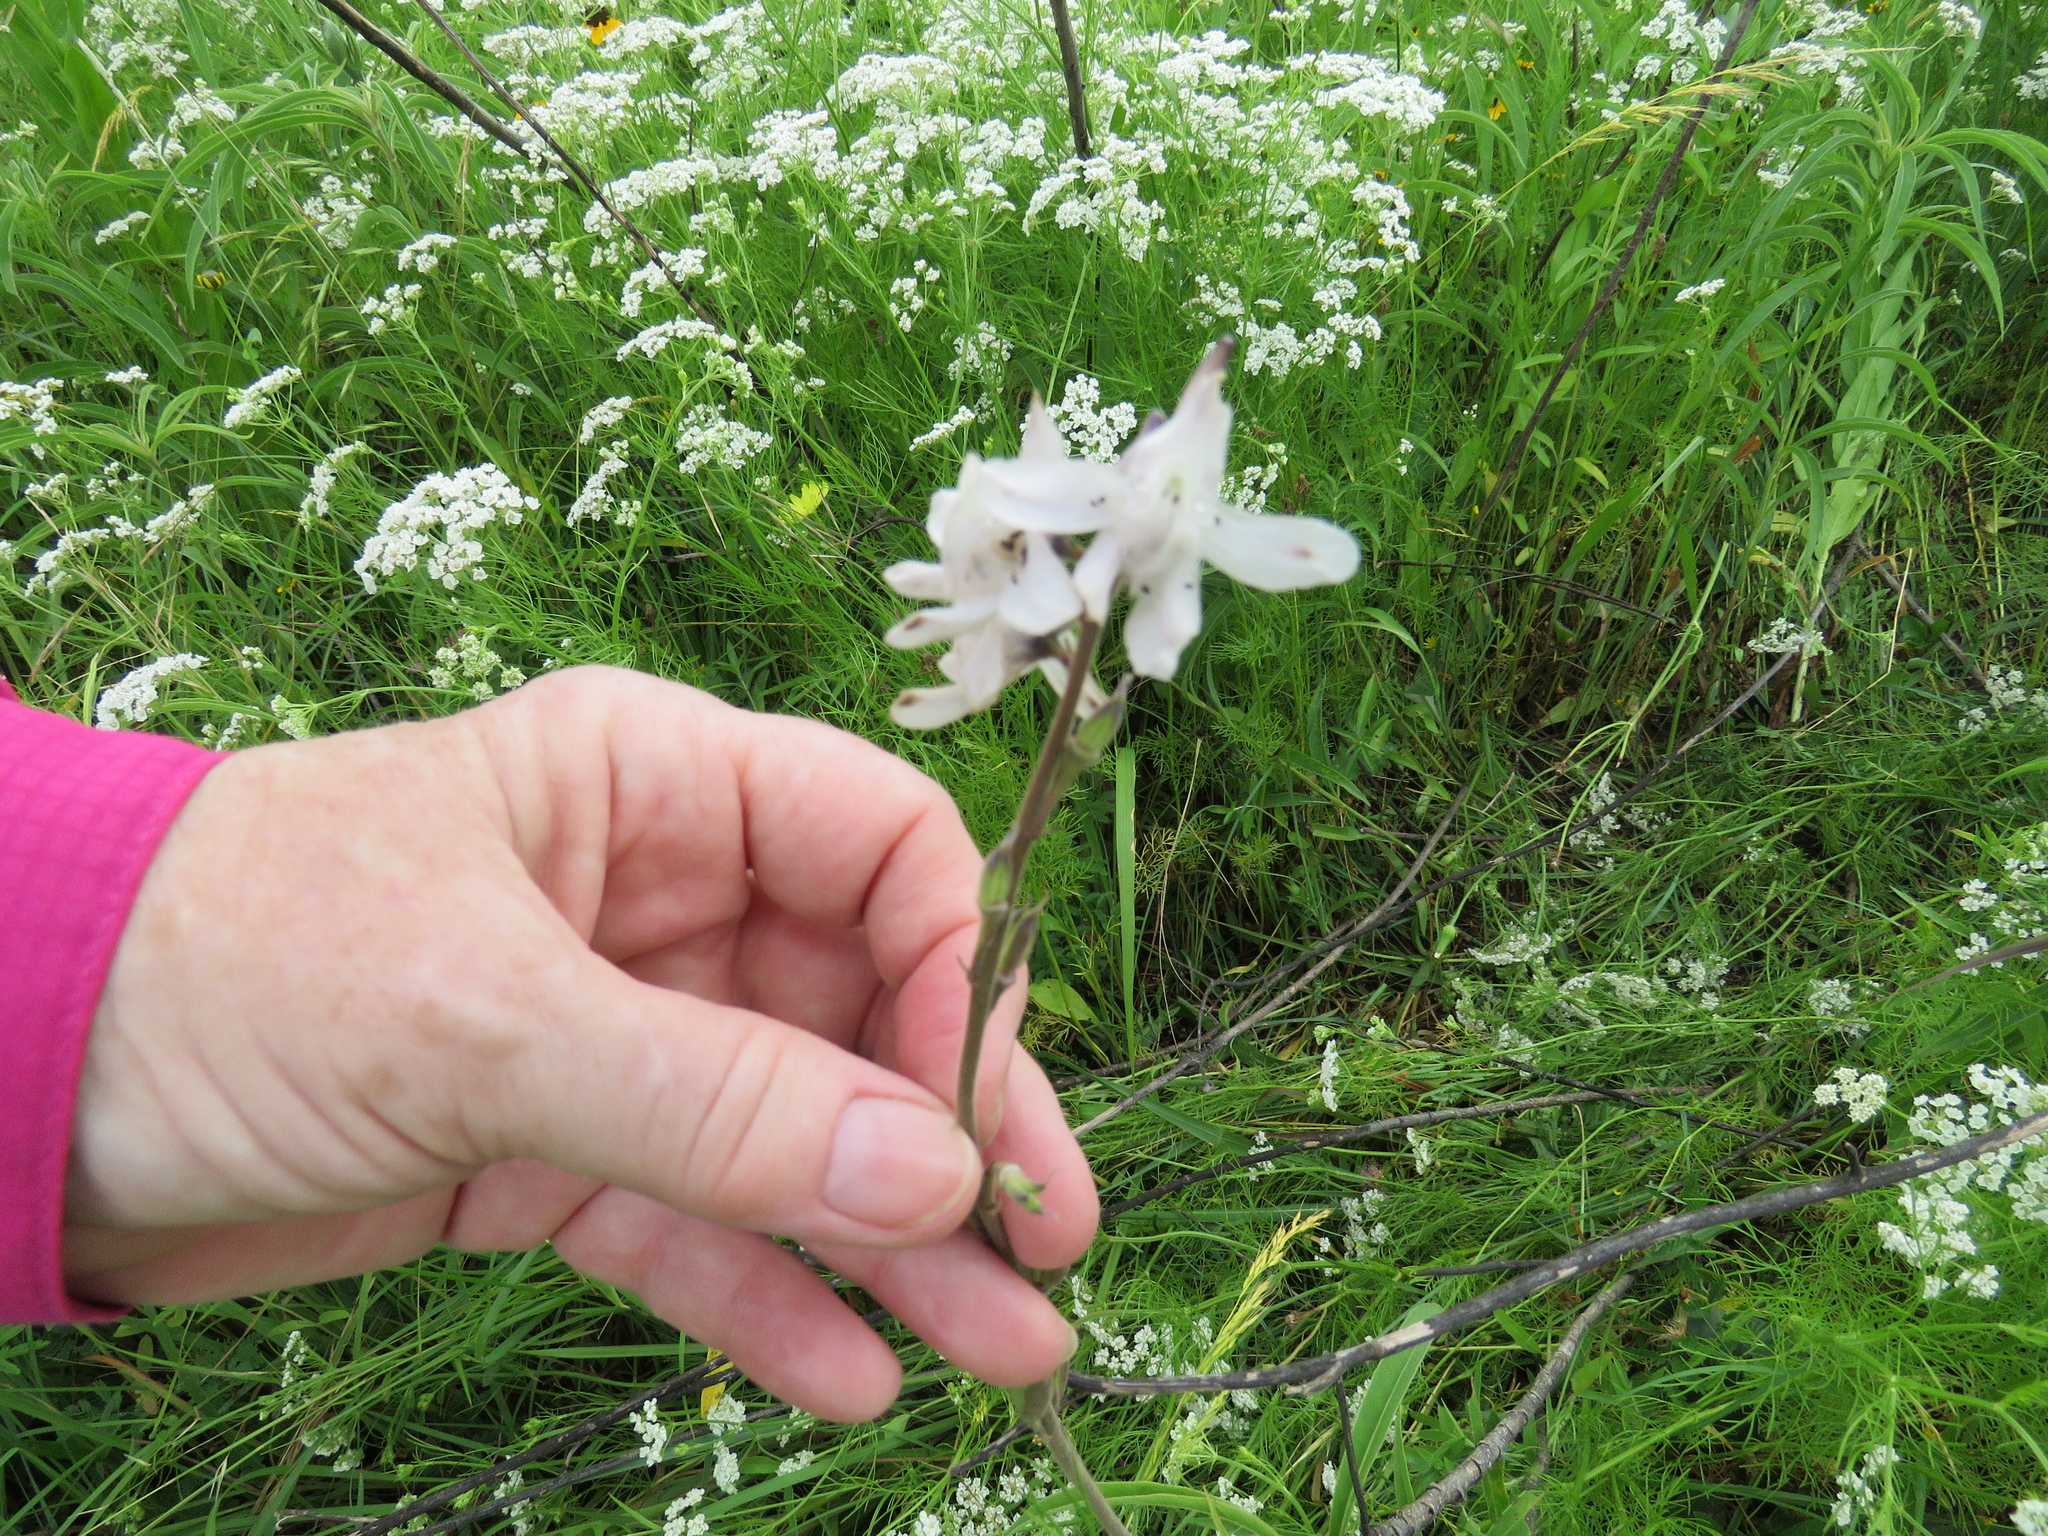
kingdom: Plantae
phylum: Tracheophyta
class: Magnoliopsida
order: Ranunculales
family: Ranunculaceae
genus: Delphinium
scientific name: Delphinium carolinianum
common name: Carolina larkspur
